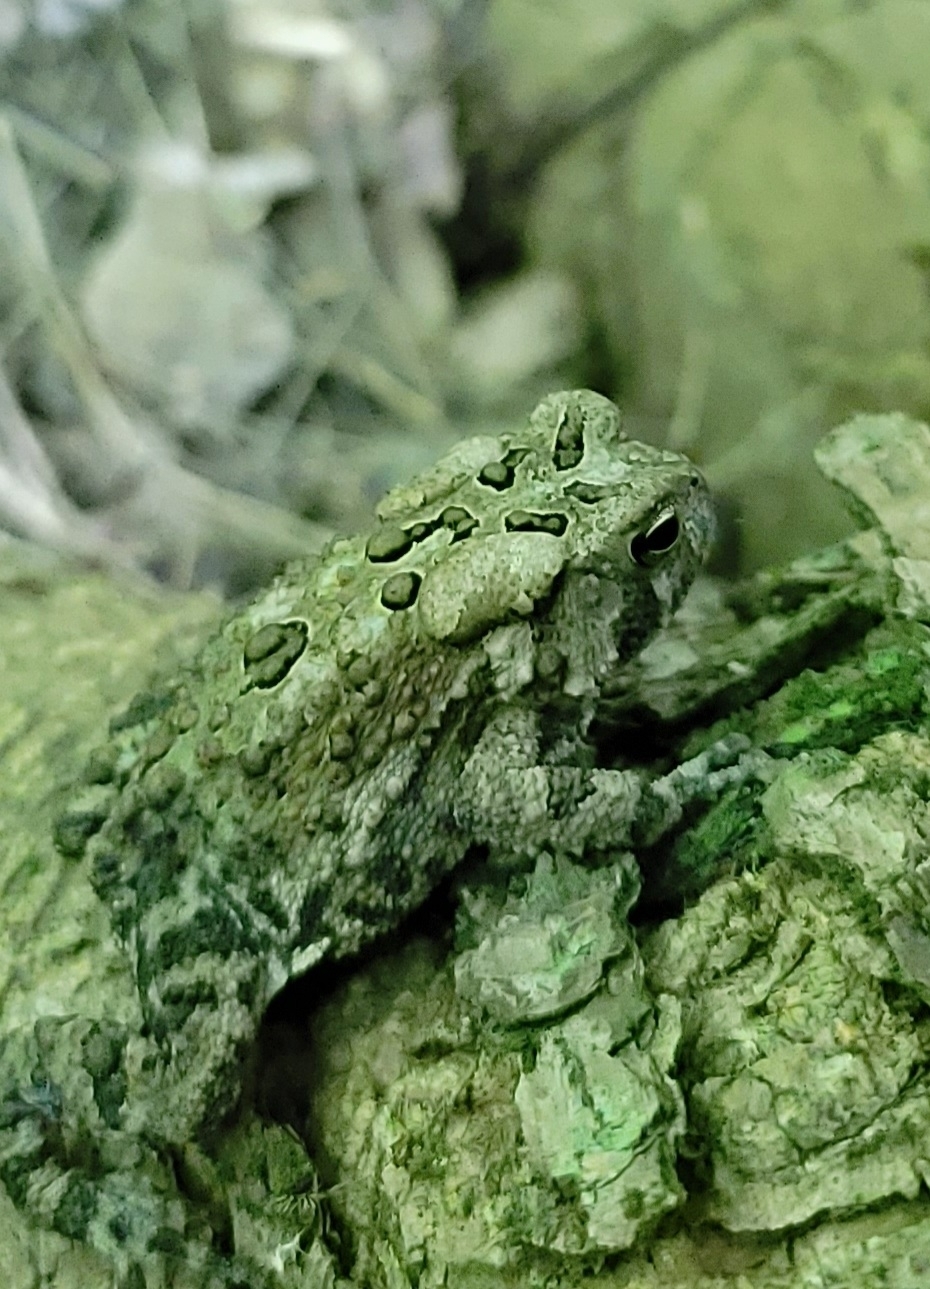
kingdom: Animalia
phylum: Chordata
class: Amphibia
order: Anura
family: Bufonidae
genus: Anaxyrus
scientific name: Anaxyrus americanus
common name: American toad
